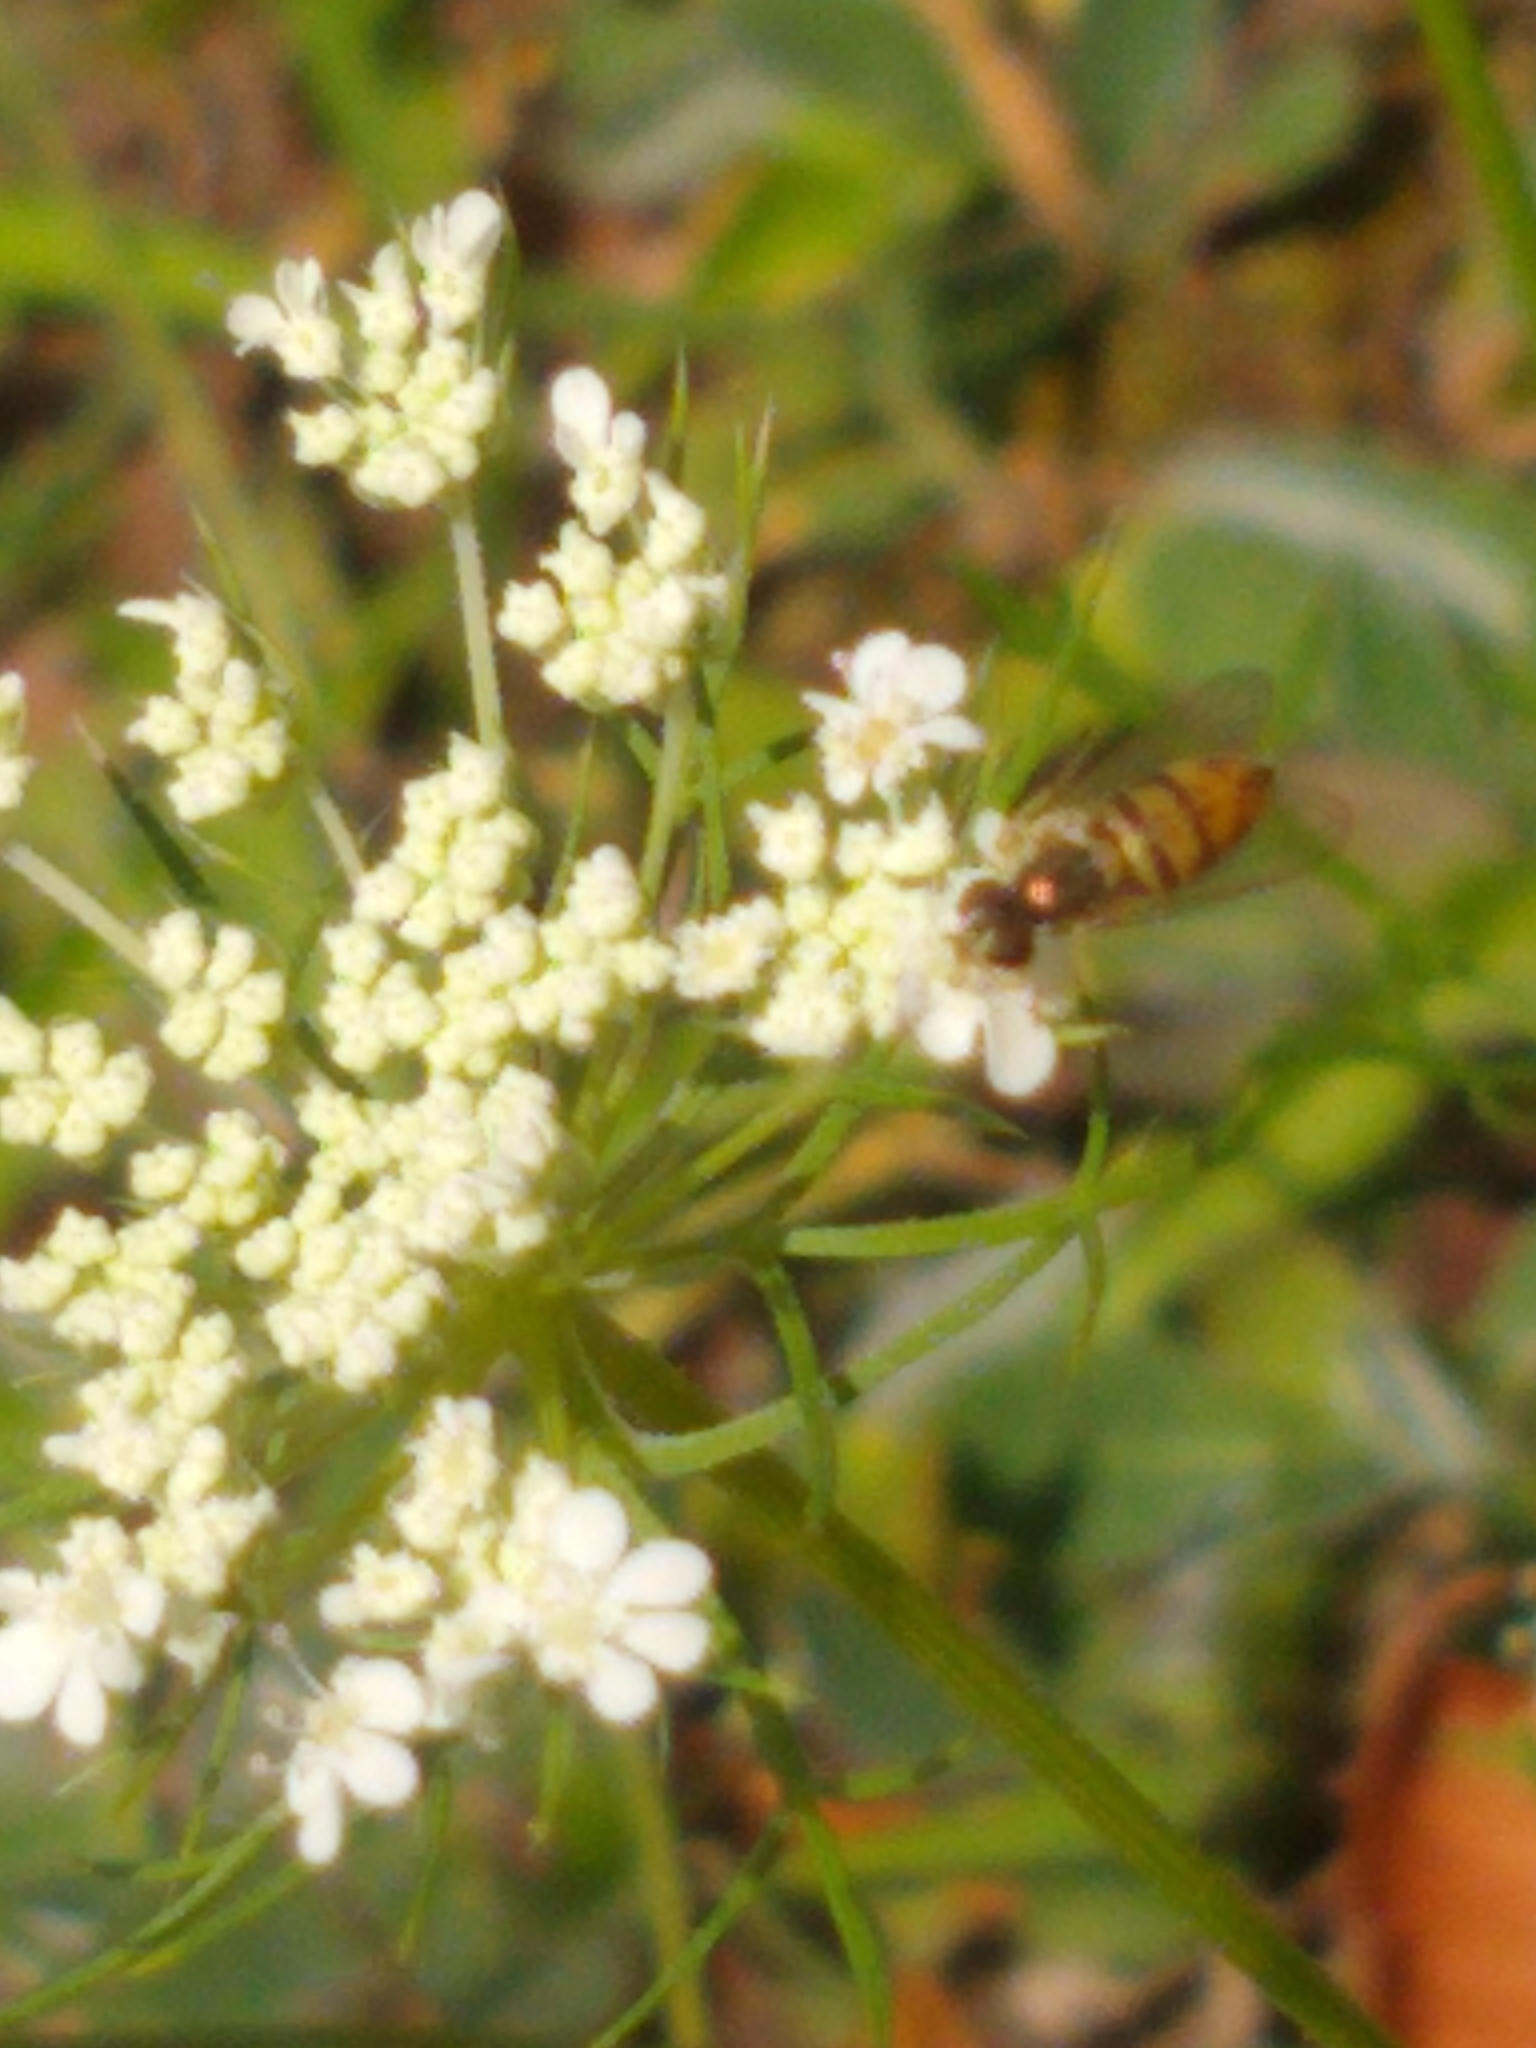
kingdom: Animalia
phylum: Arthropoda
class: Insecta
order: Diptera
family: Syrphidae
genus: Toxomerus
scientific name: Toxomerus marginatus
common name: Syrphid fly
